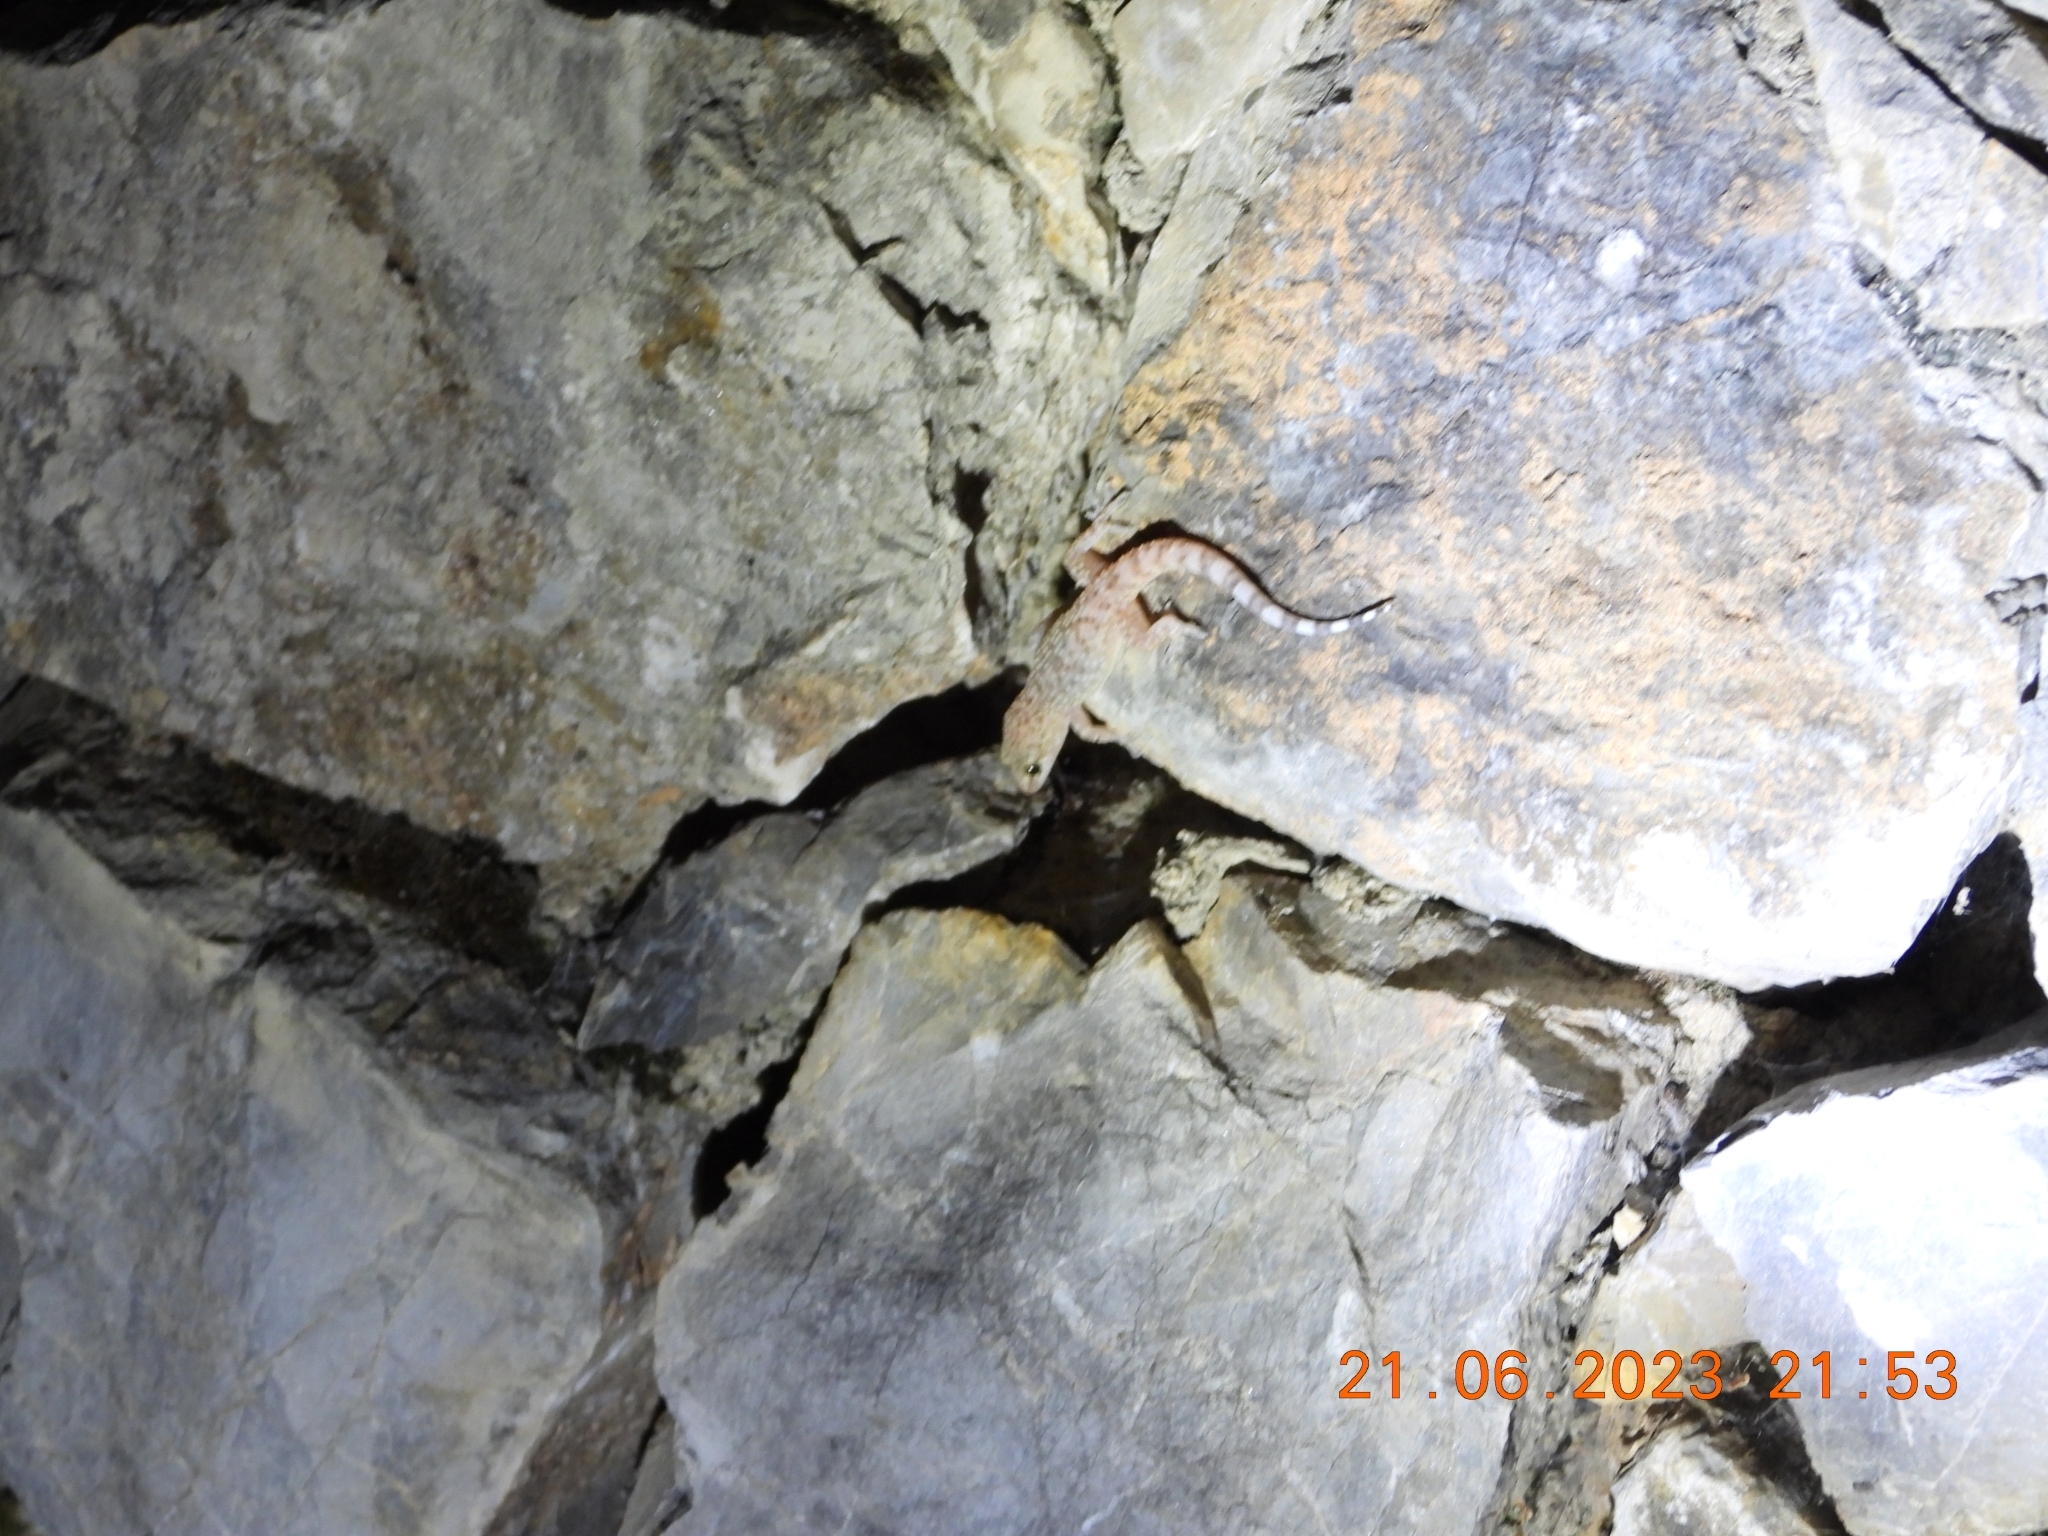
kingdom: Animalia
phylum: Chordata
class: Squamata
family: Gekkonidae
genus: Hemidactylus
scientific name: Hemidactylus turcicus
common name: Turkish gecko
